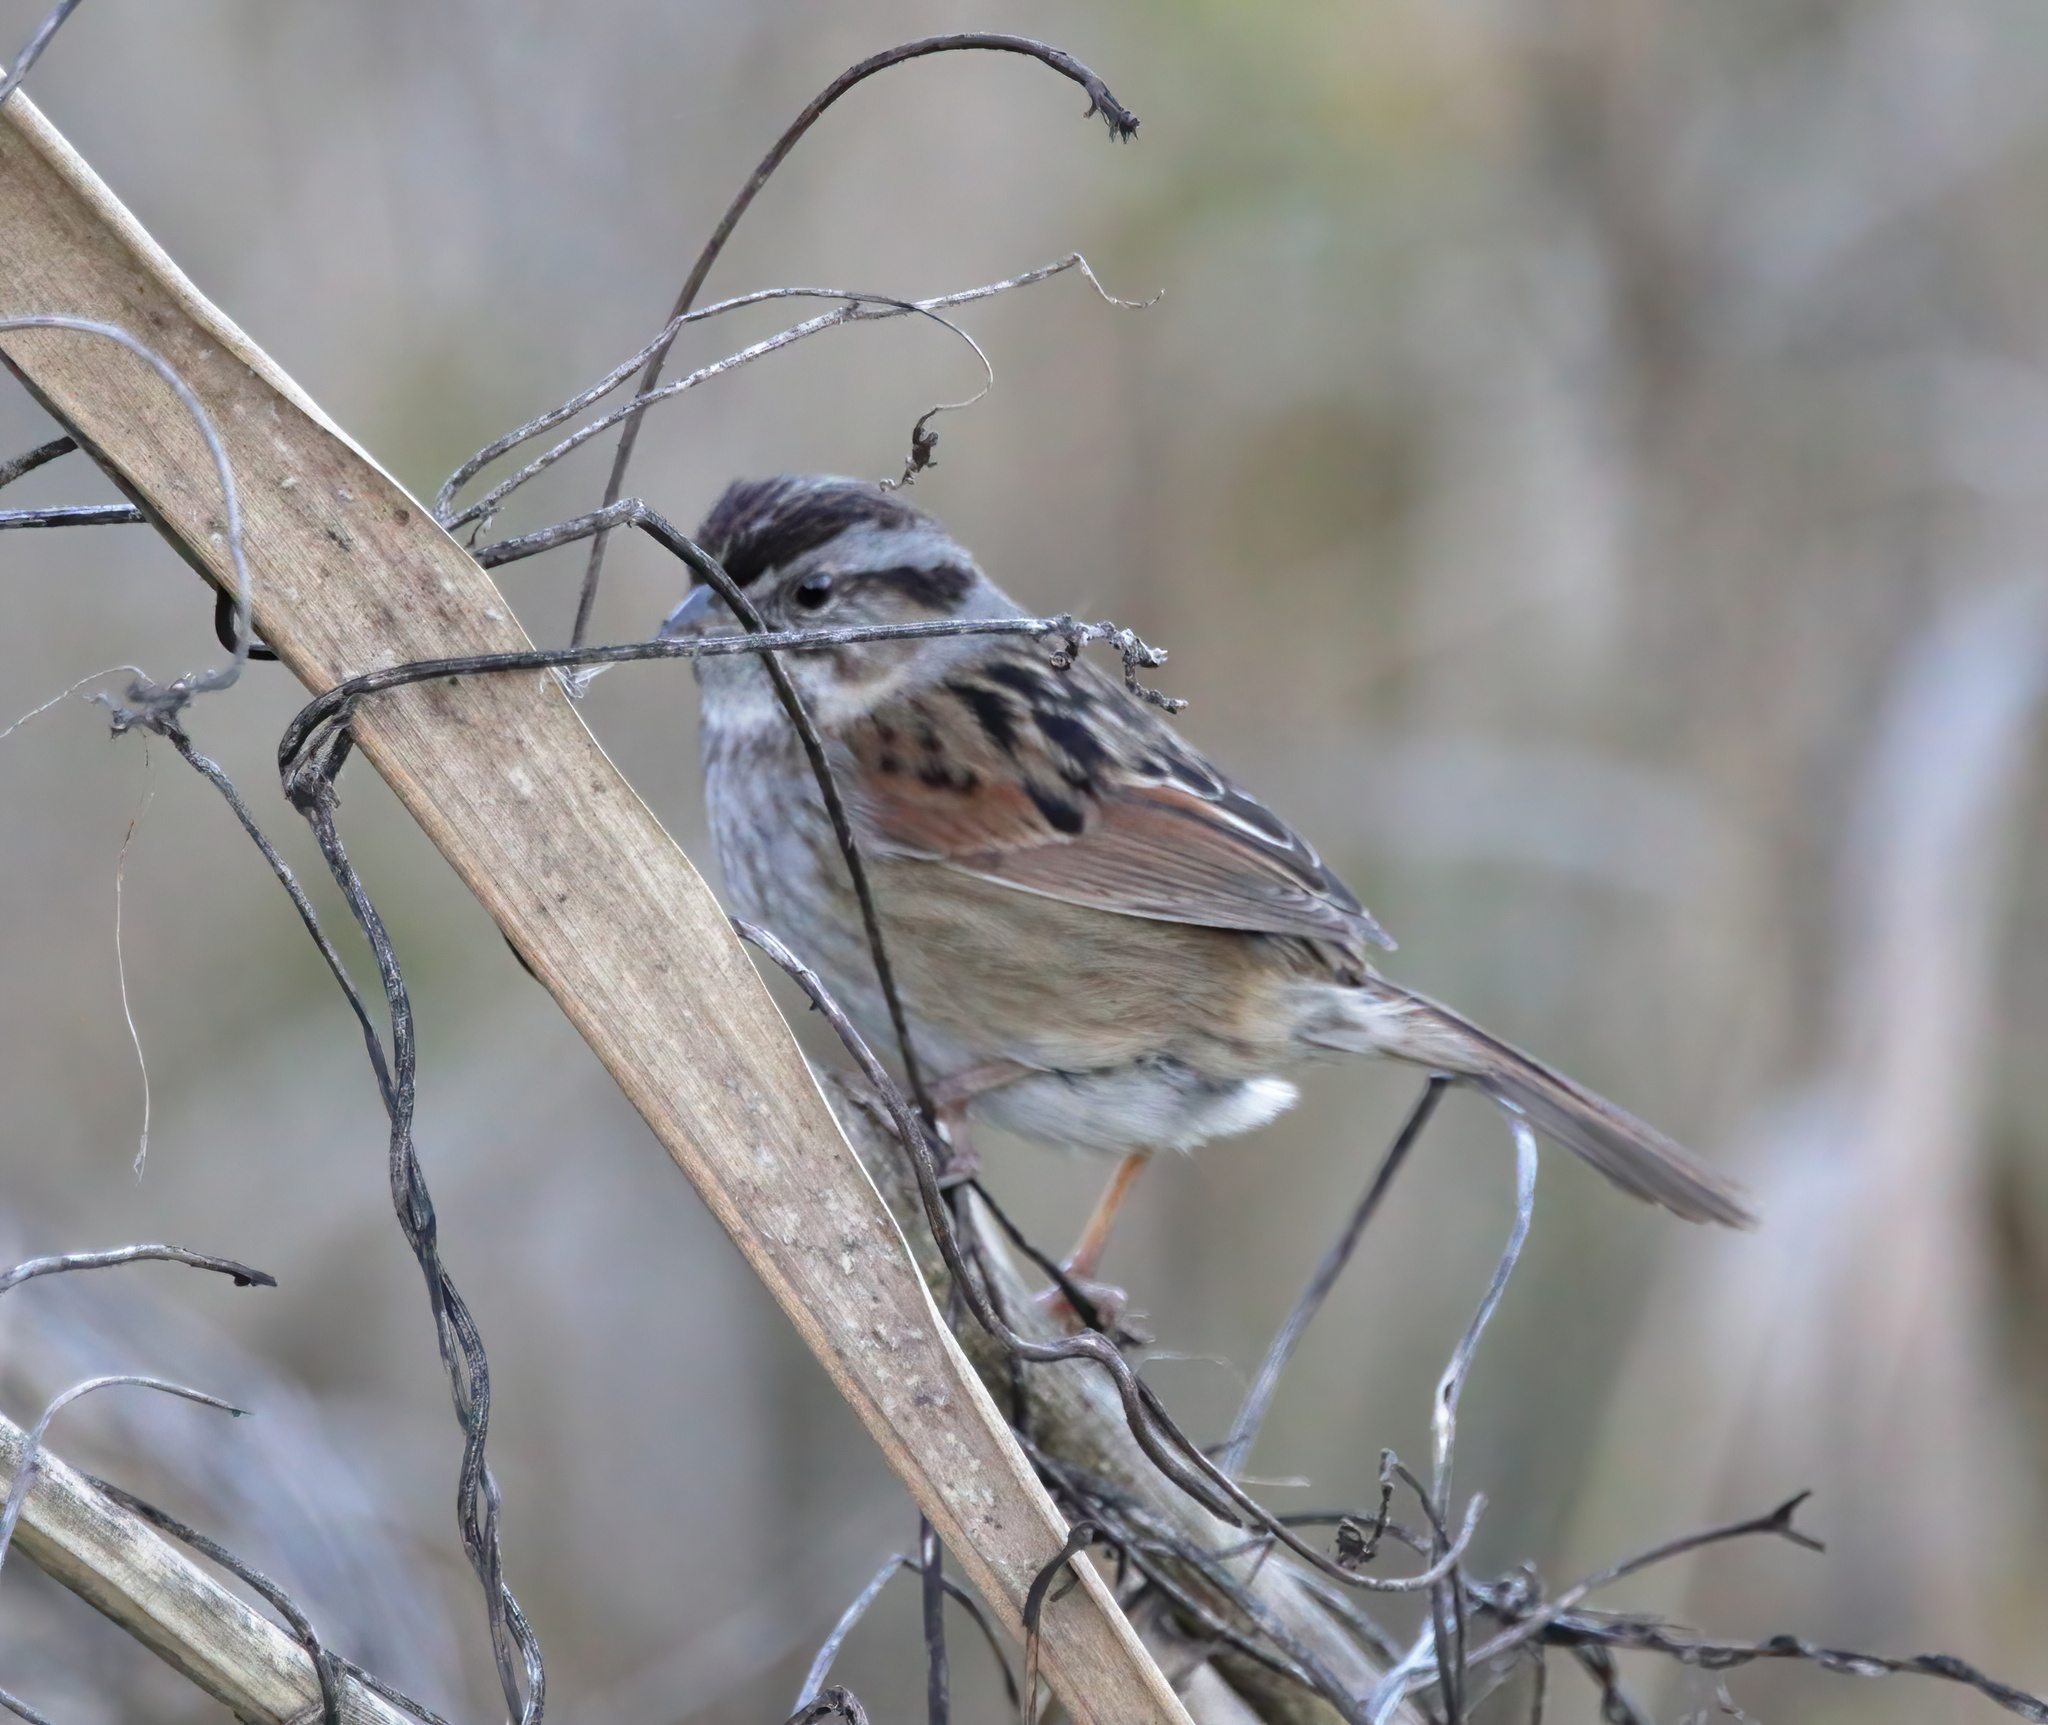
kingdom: Animalia
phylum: Chordata
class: Aves
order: Passeriformes
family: Passerellidae
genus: Melospiza
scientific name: Melospiza georgiana
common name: Swamp sparrow
